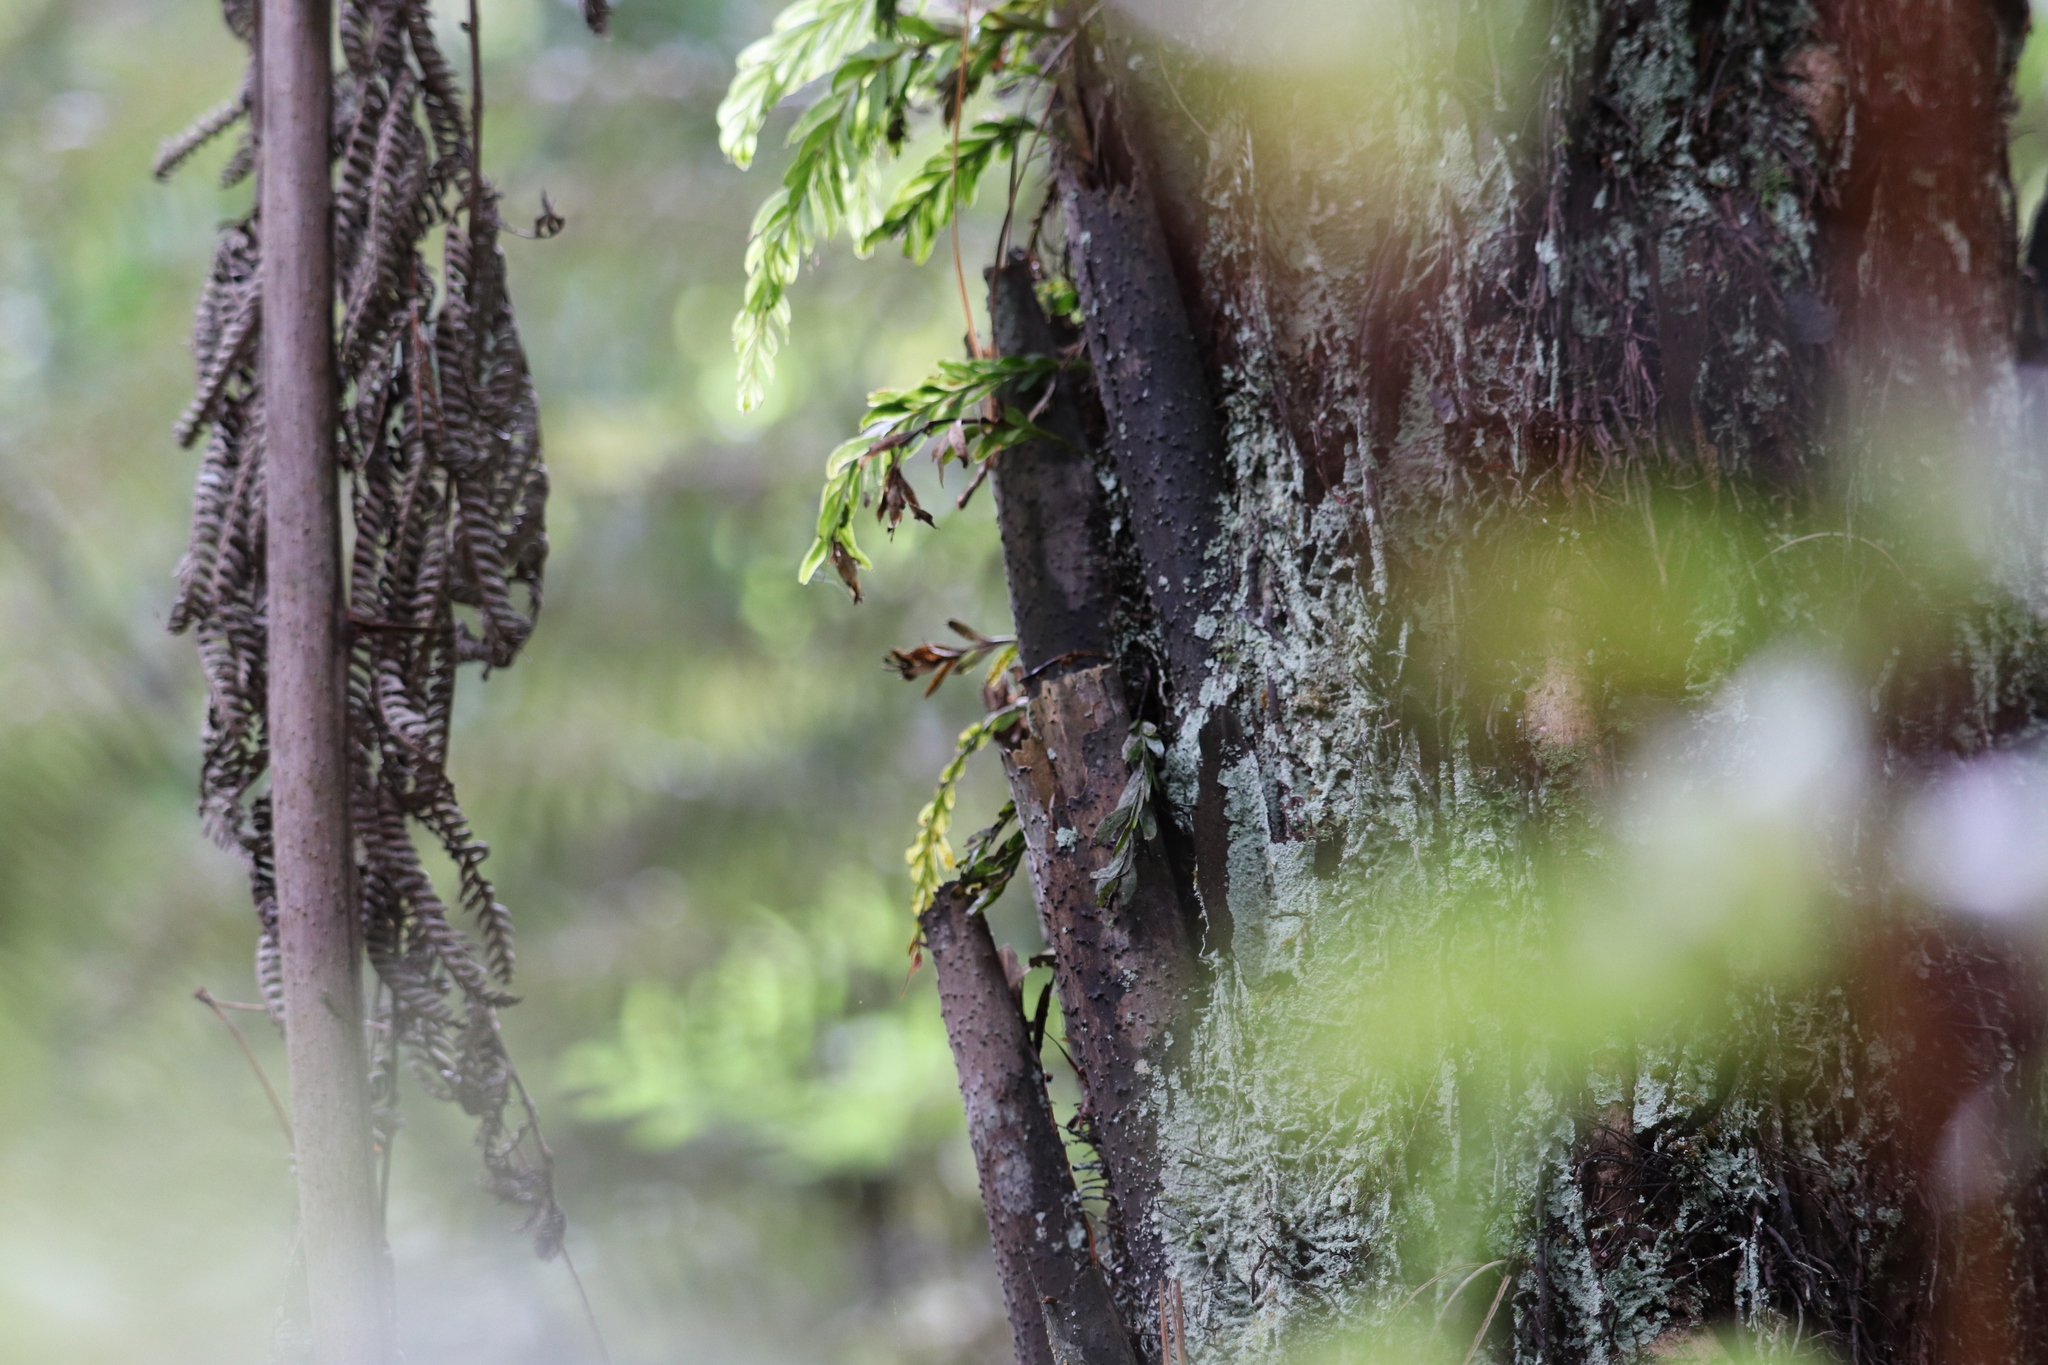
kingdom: Plantae
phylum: Tracheophyta
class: Polypodiopsida
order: Psilotales
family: Psilotaceae
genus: Tmesipteris
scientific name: Tmesipteris
